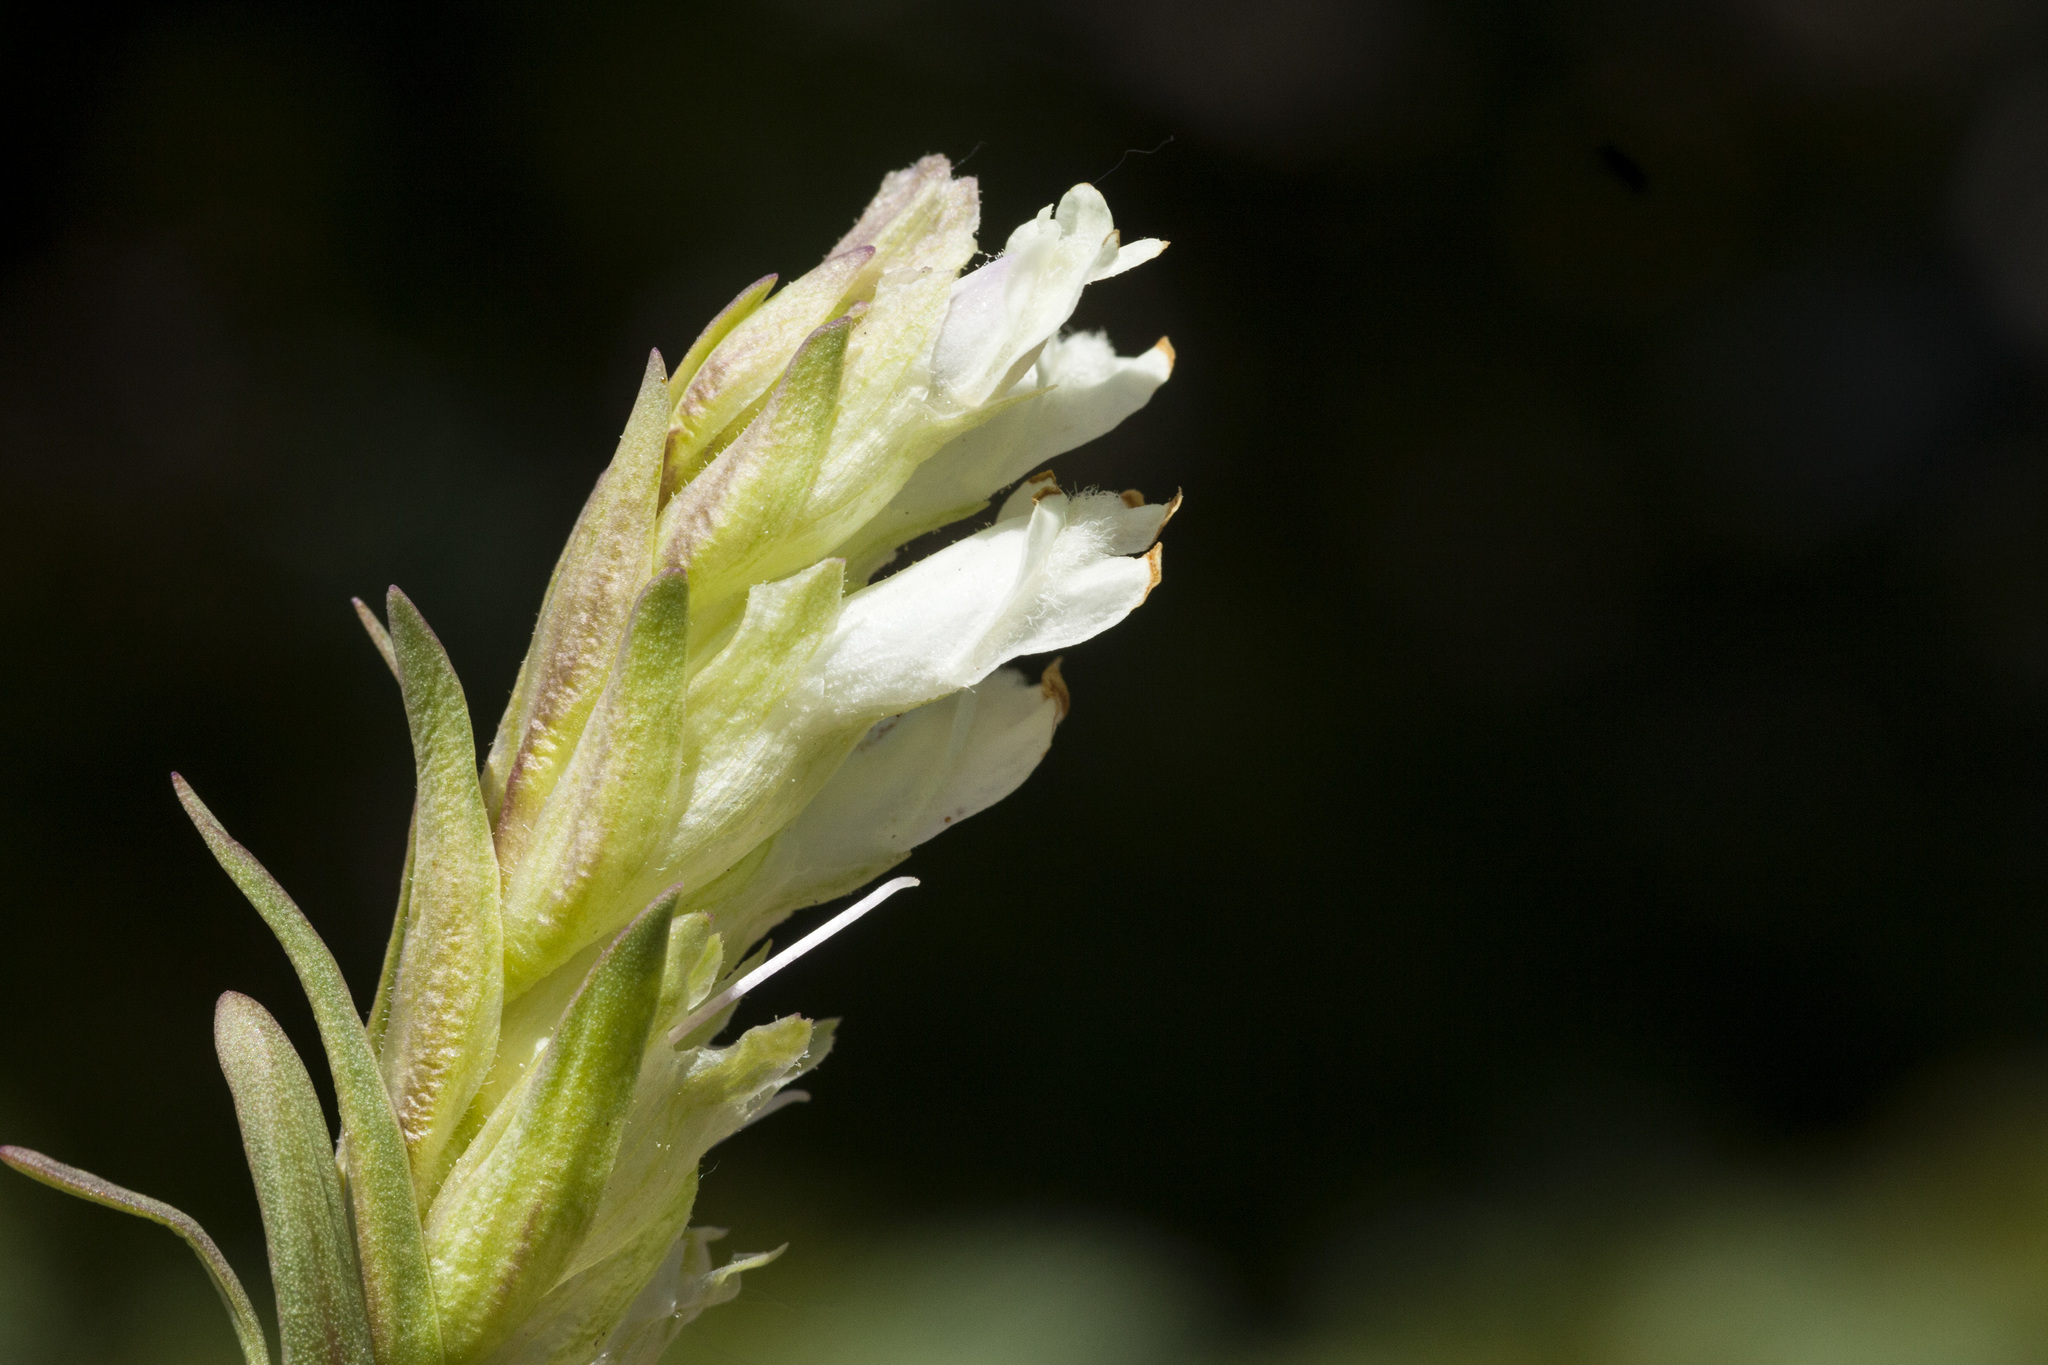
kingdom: Plantae
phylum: Tracheophyta
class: Magnoliopsida
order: Lamiales
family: Plantaginaceae
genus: Chionophila
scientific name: Chionophila jamesii
